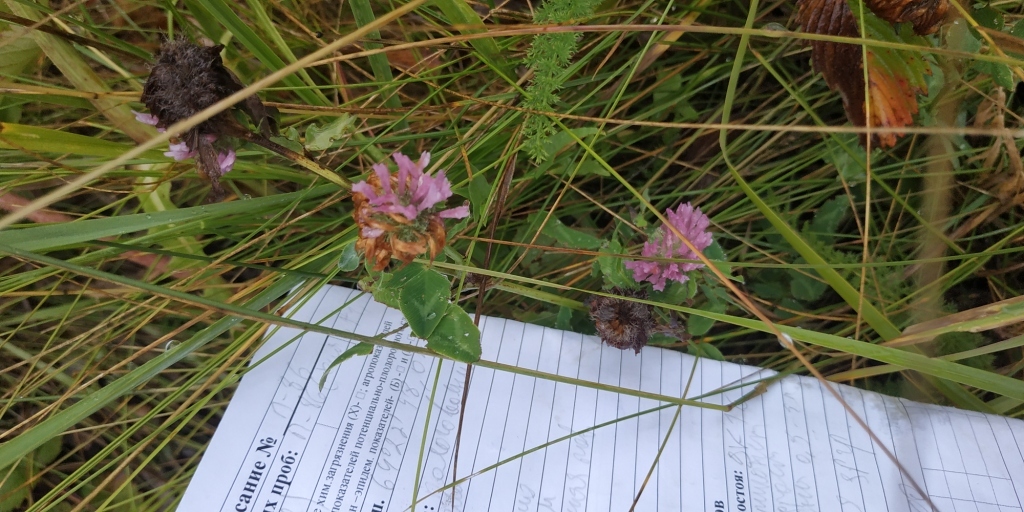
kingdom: Plantae
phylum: Tracheophyta
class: Magnoliopsida
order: Fabales
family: Fabaceae
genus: Trifolium
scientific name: Trifolium pratense
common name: Red clover
